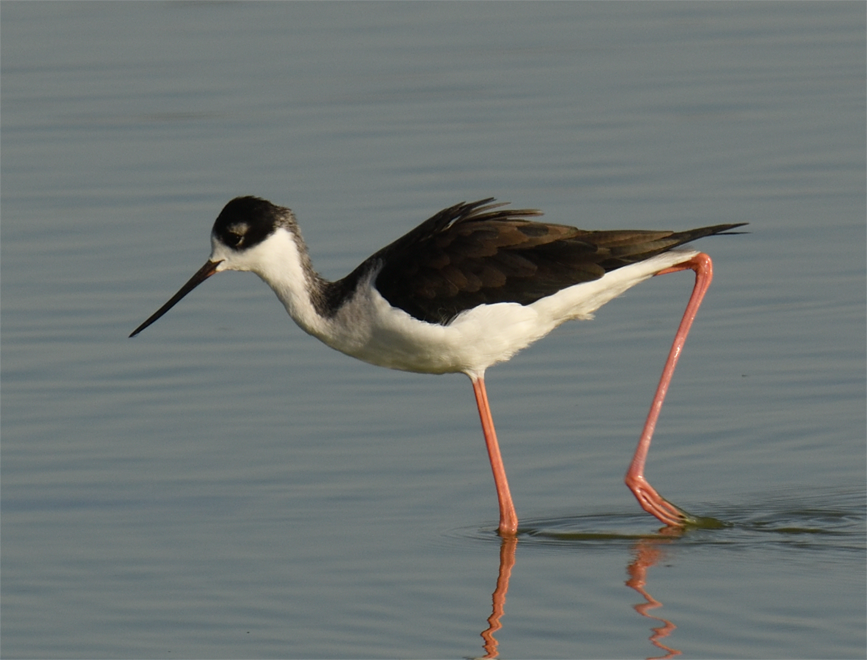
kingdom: Animalia
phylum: Chordata
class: Aves
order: Charadriiformes
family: Recurvirostridae
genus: Himantopus
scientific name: Himantopus mexicanus
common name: Black-necked stilt
